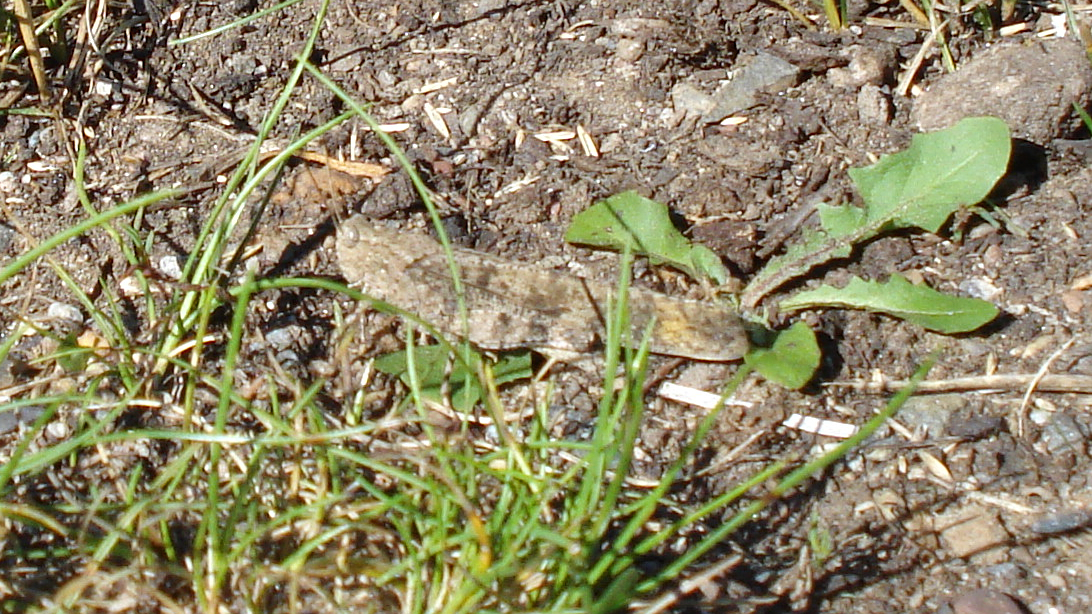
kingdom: Animalia
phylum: Arthropoda
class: Insecta
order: Orthoptera
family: Acrididae
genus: Dissosteira
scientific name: Dissosteira carolina
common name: Carolina grasshopper
